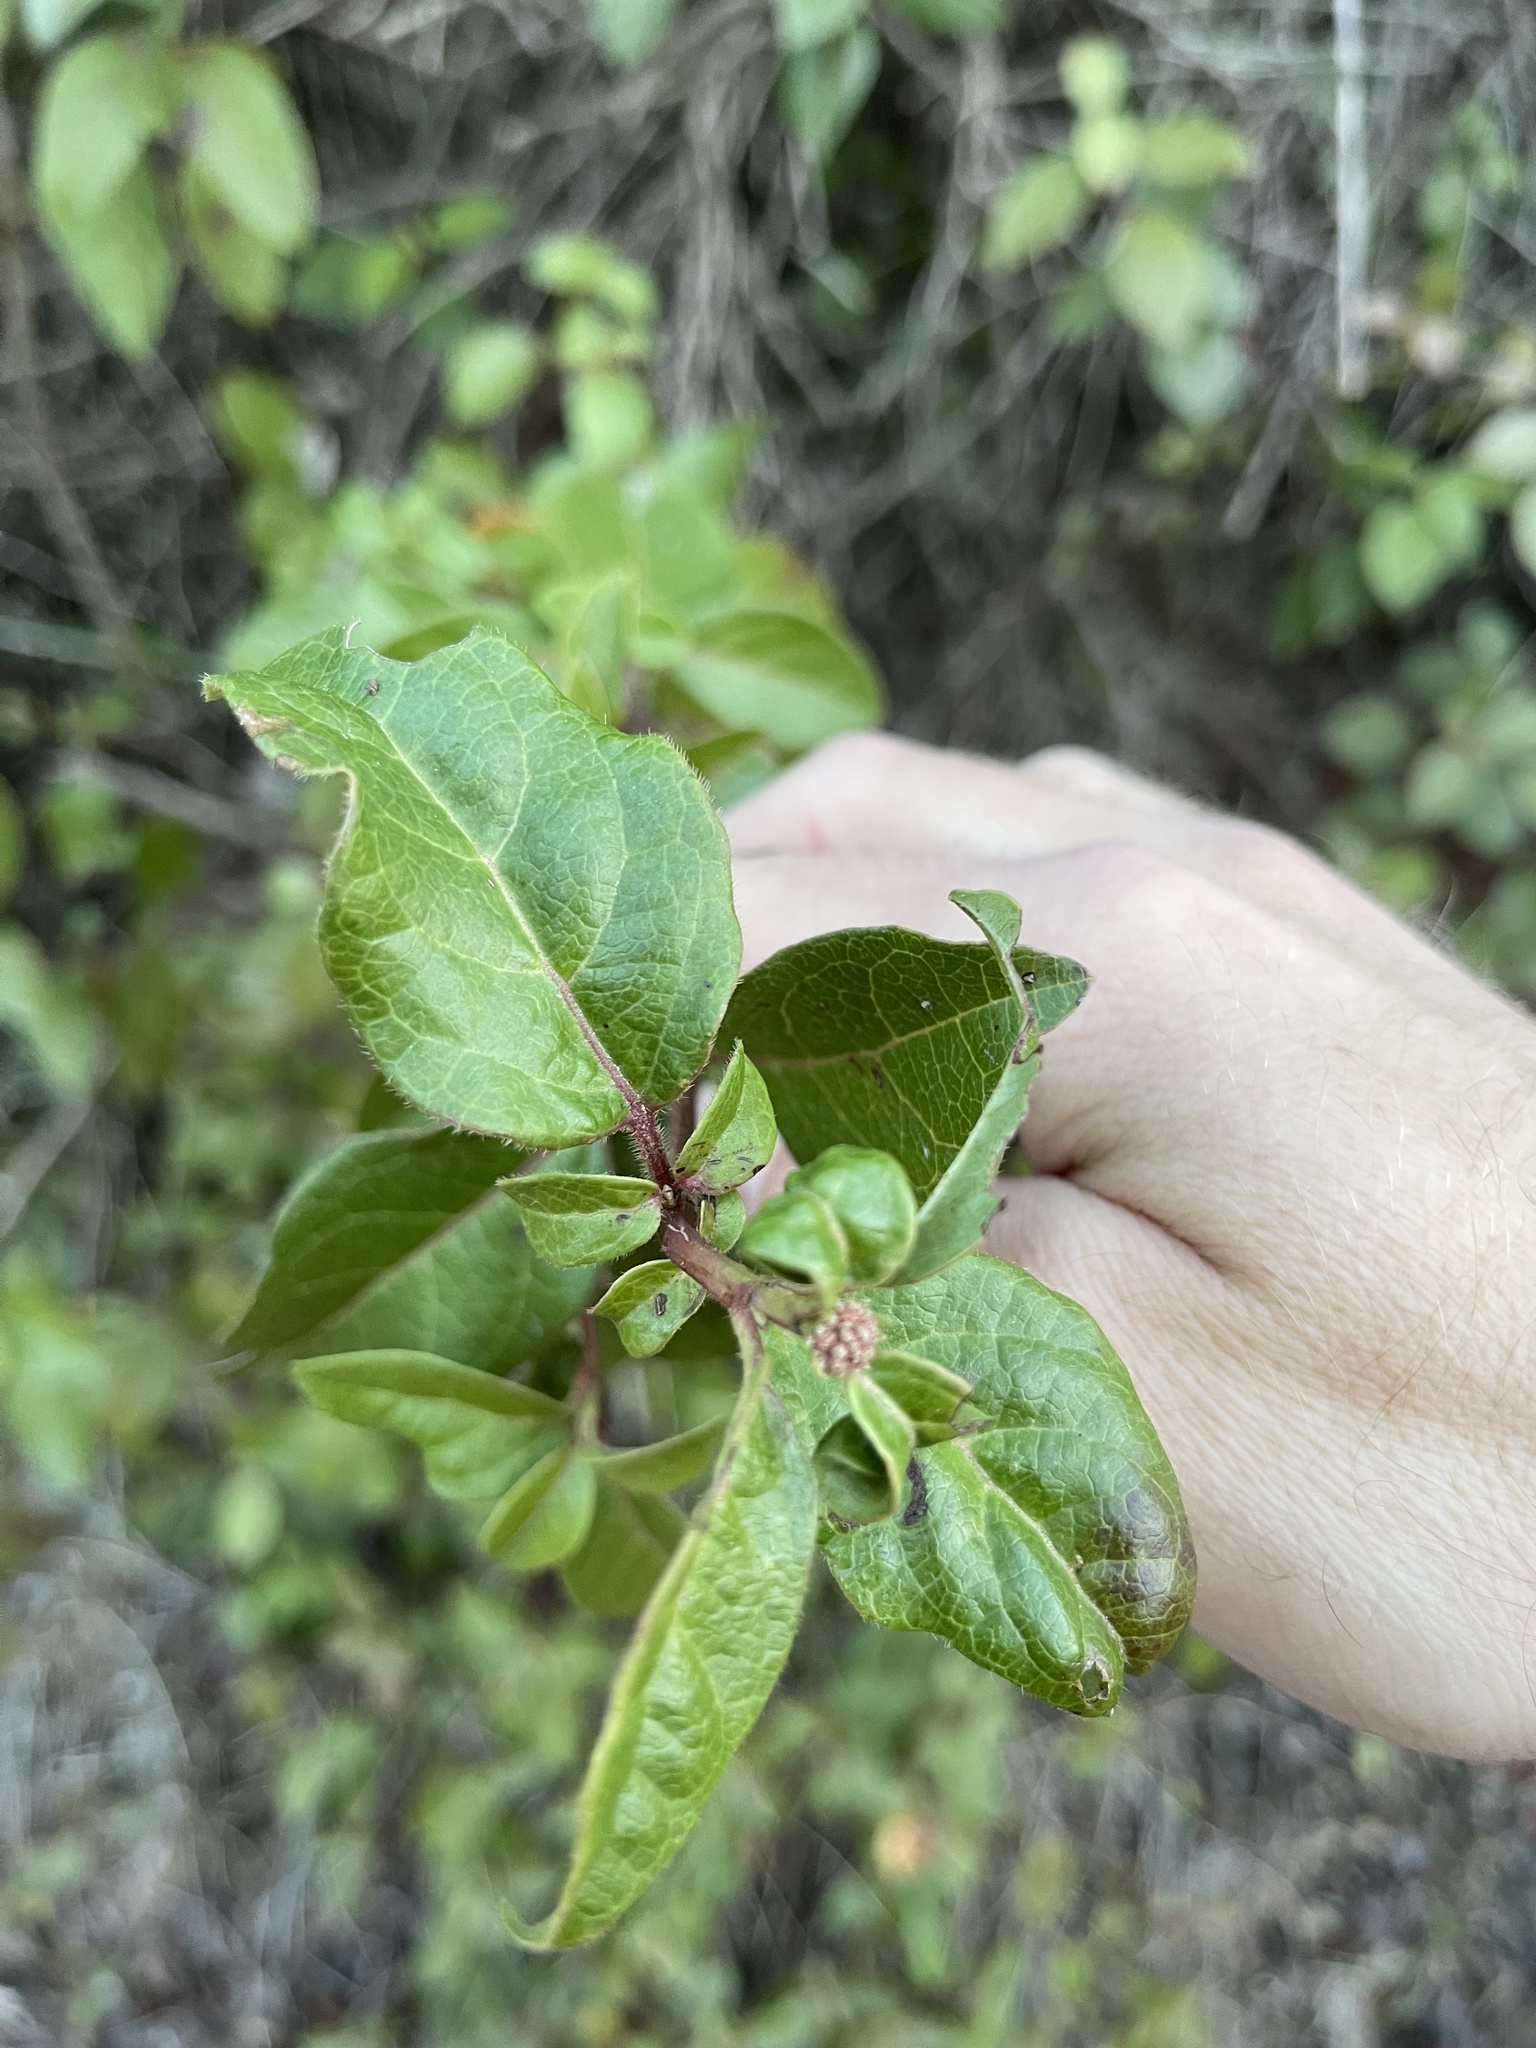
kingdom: Plantae
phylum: Tracheophyta
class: Magnoliopsida
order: Dipsacales
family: Viburnaceae
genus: Viburnum
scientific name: Viburnum tinus
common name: Laurustinus
